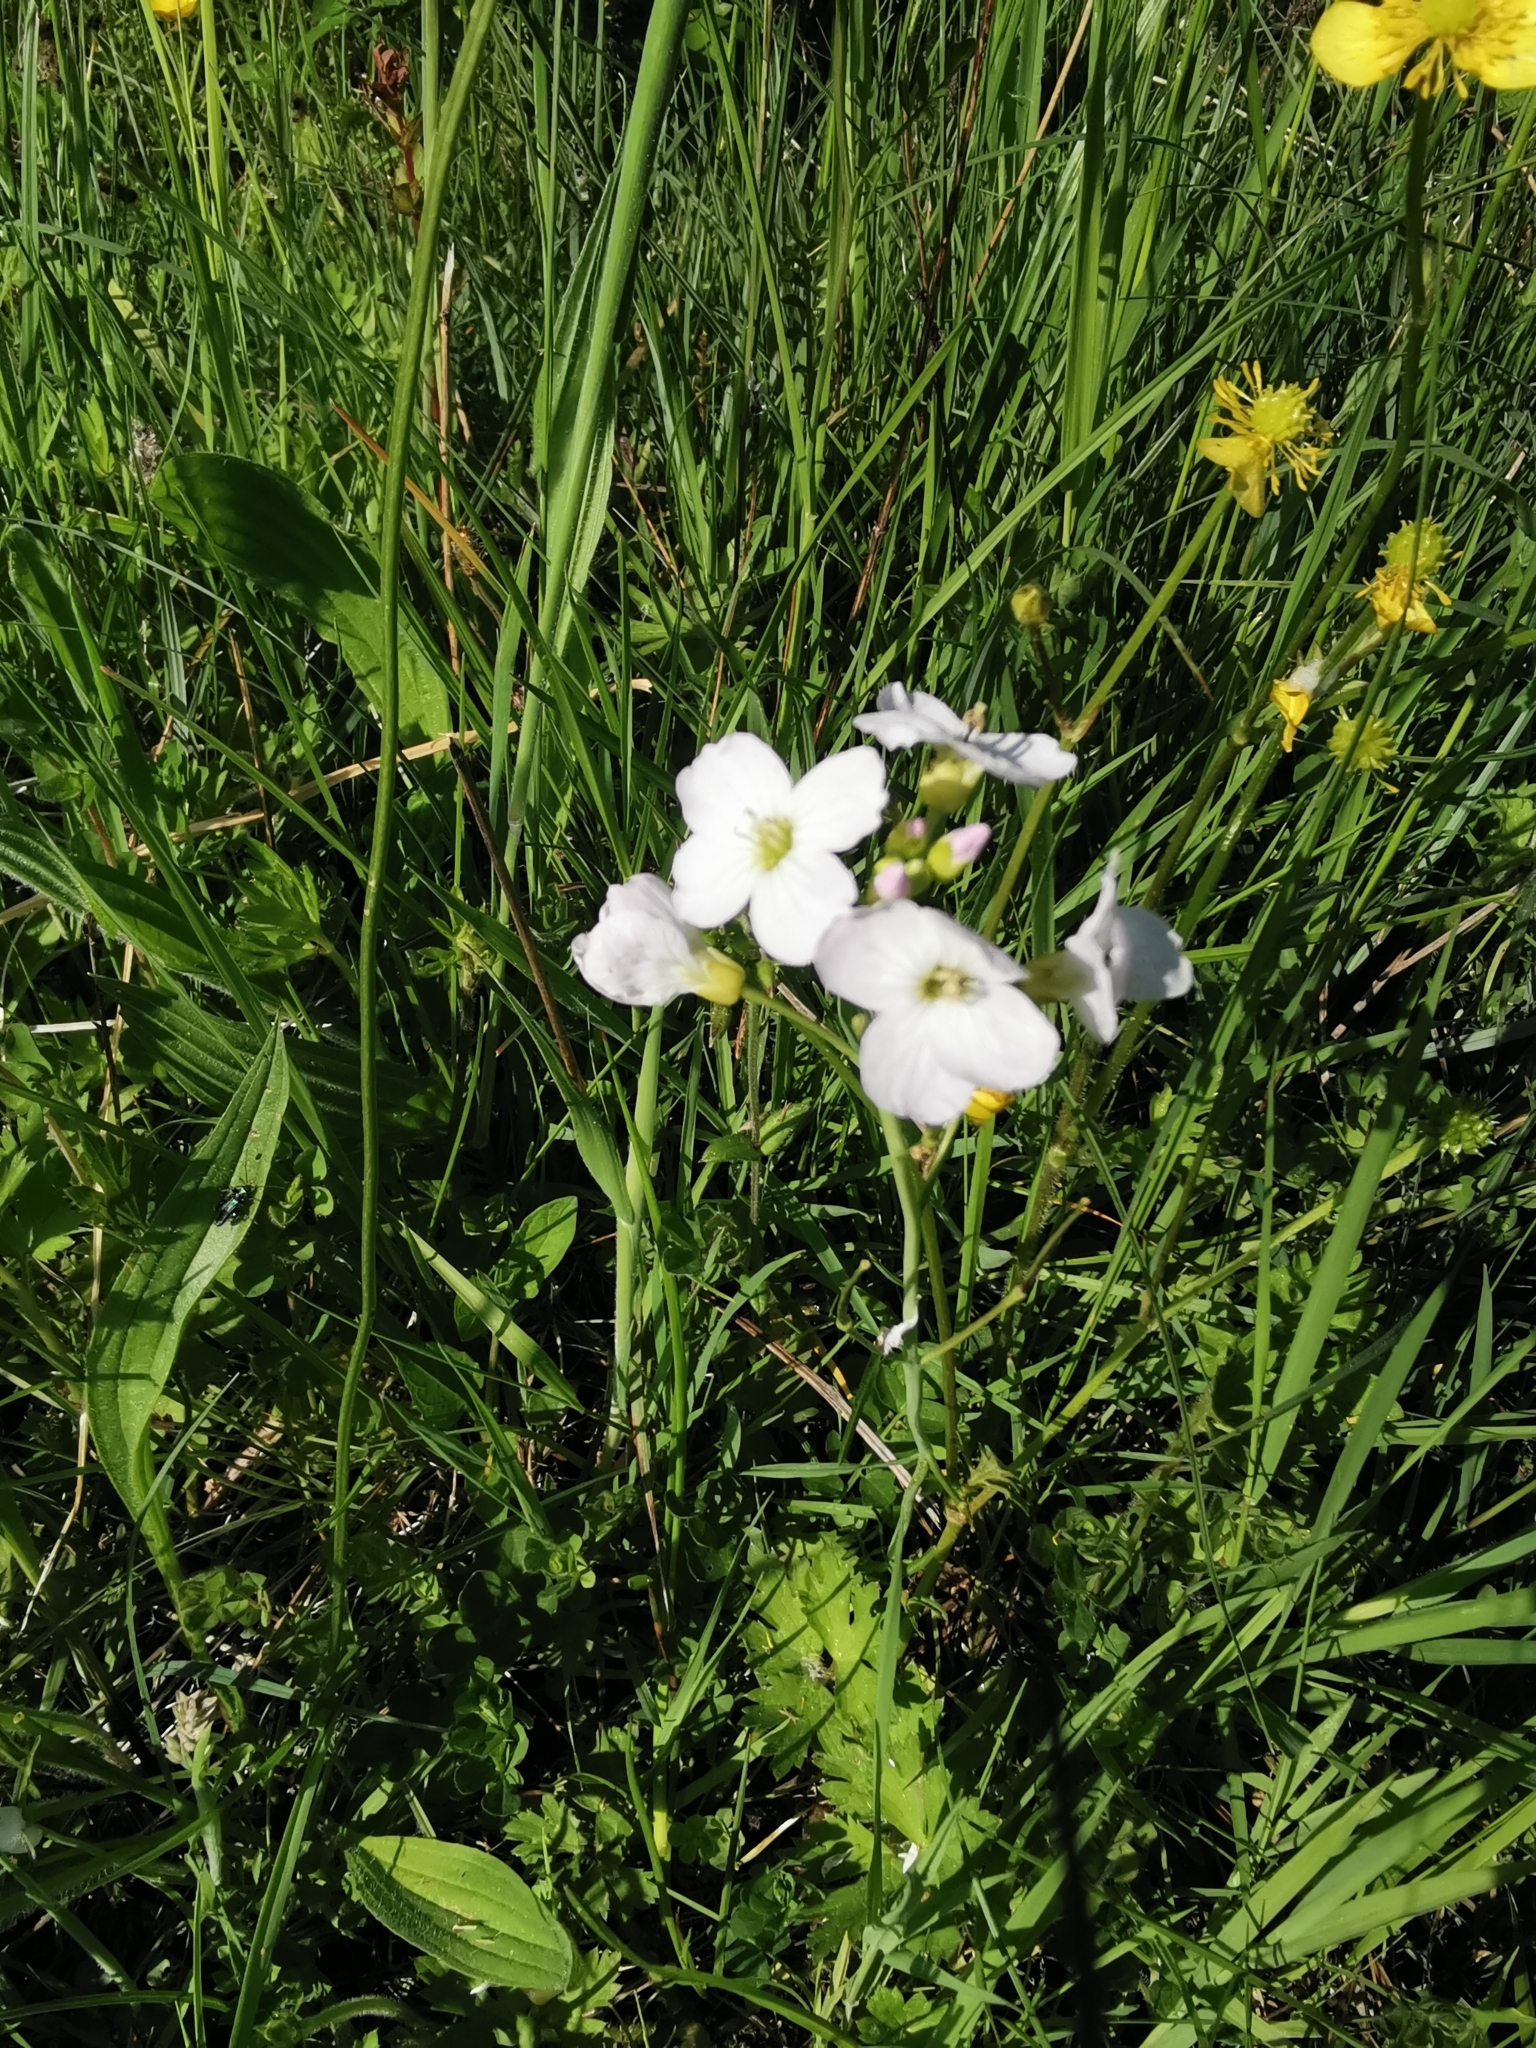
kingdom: Plantae
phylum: Tracheophyta
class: Magnoliopsida
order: Brassicales
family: Brassicaceae
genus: Cardamine
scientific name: Cardamine pratensis
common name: Cuckoo flower
